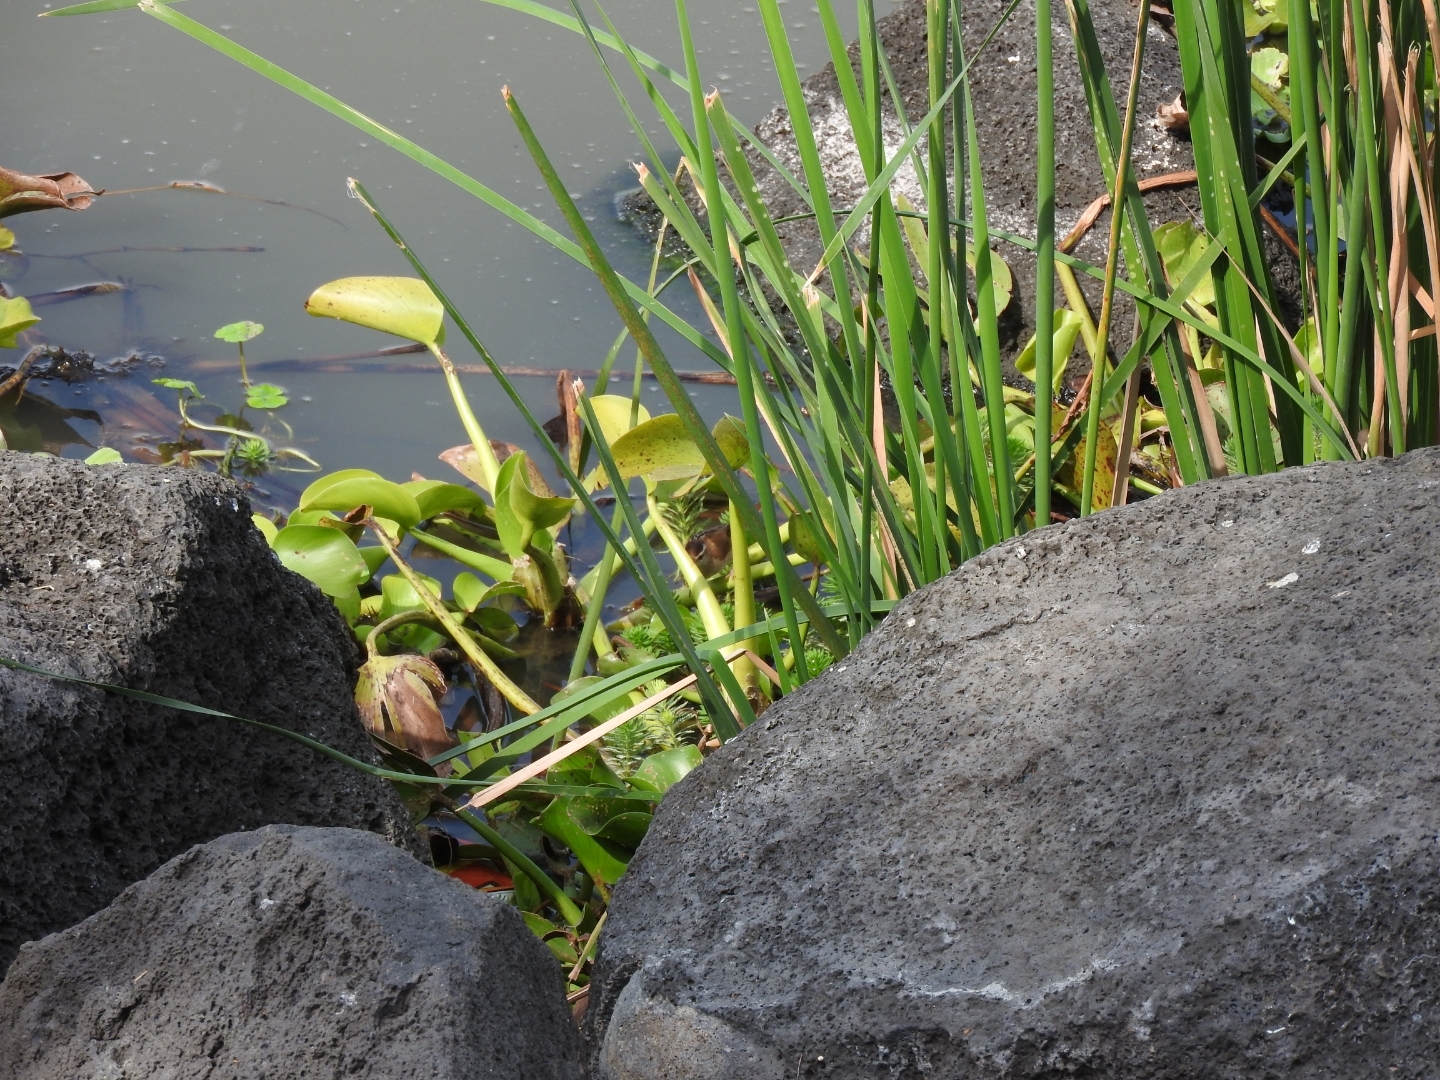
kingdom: Plantae
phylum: Tracheophyta
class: Liliopsida
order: Commelinales
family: Pontederiaceae
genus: Pontederia
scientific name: Pontederia crassipes
